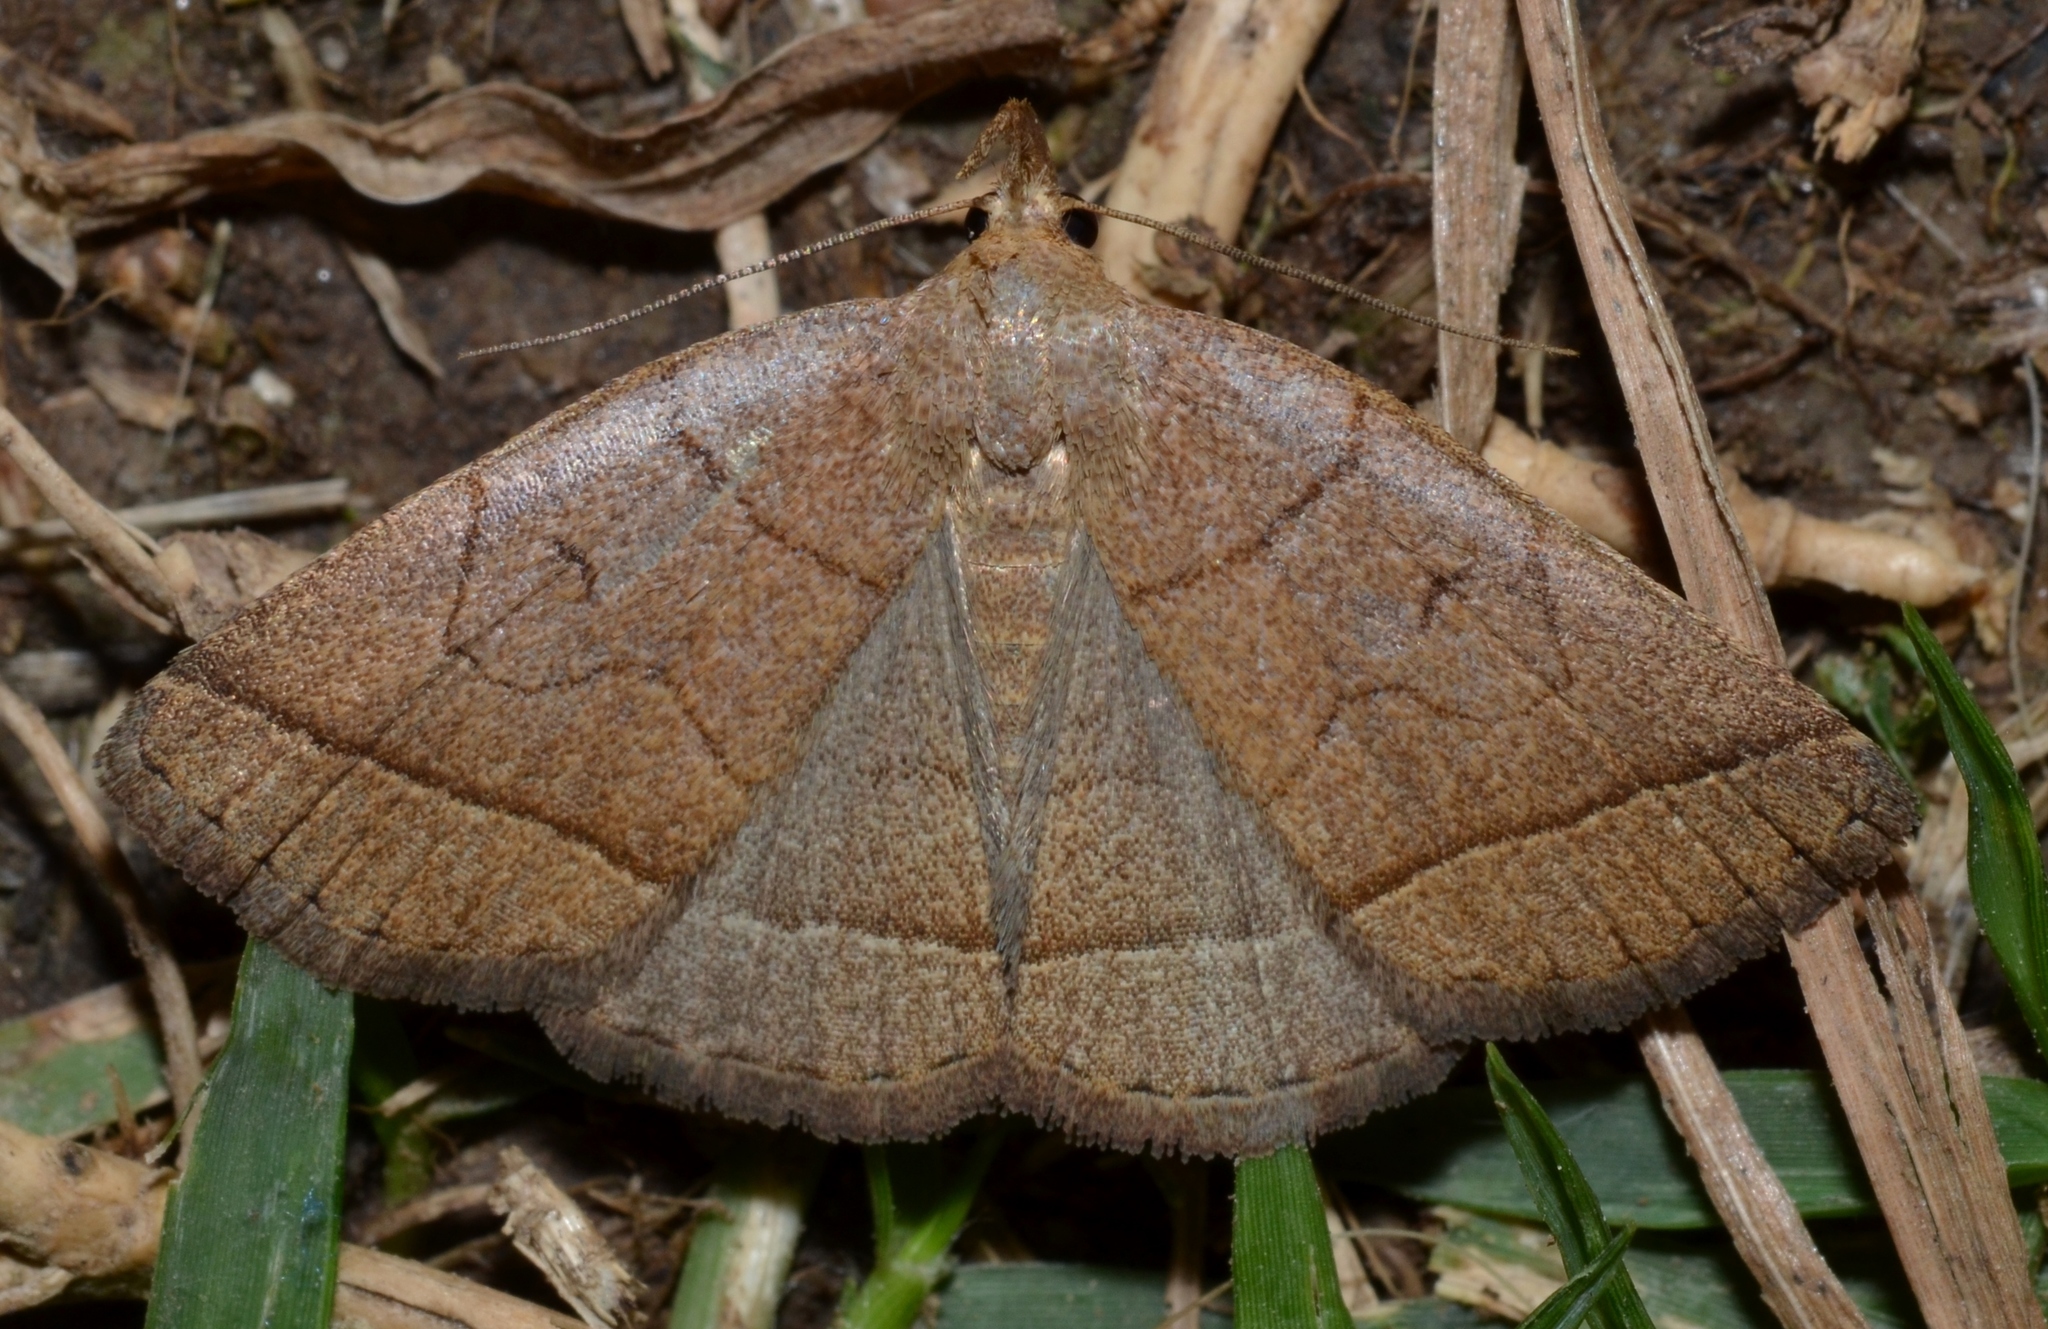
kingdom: Animalia
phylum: Arthropoda
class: Insecta
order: Lepidoptera
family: Erebidae
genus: Zanclognatha
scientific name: Zanclognatha cruralis
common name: Early fan-foot
